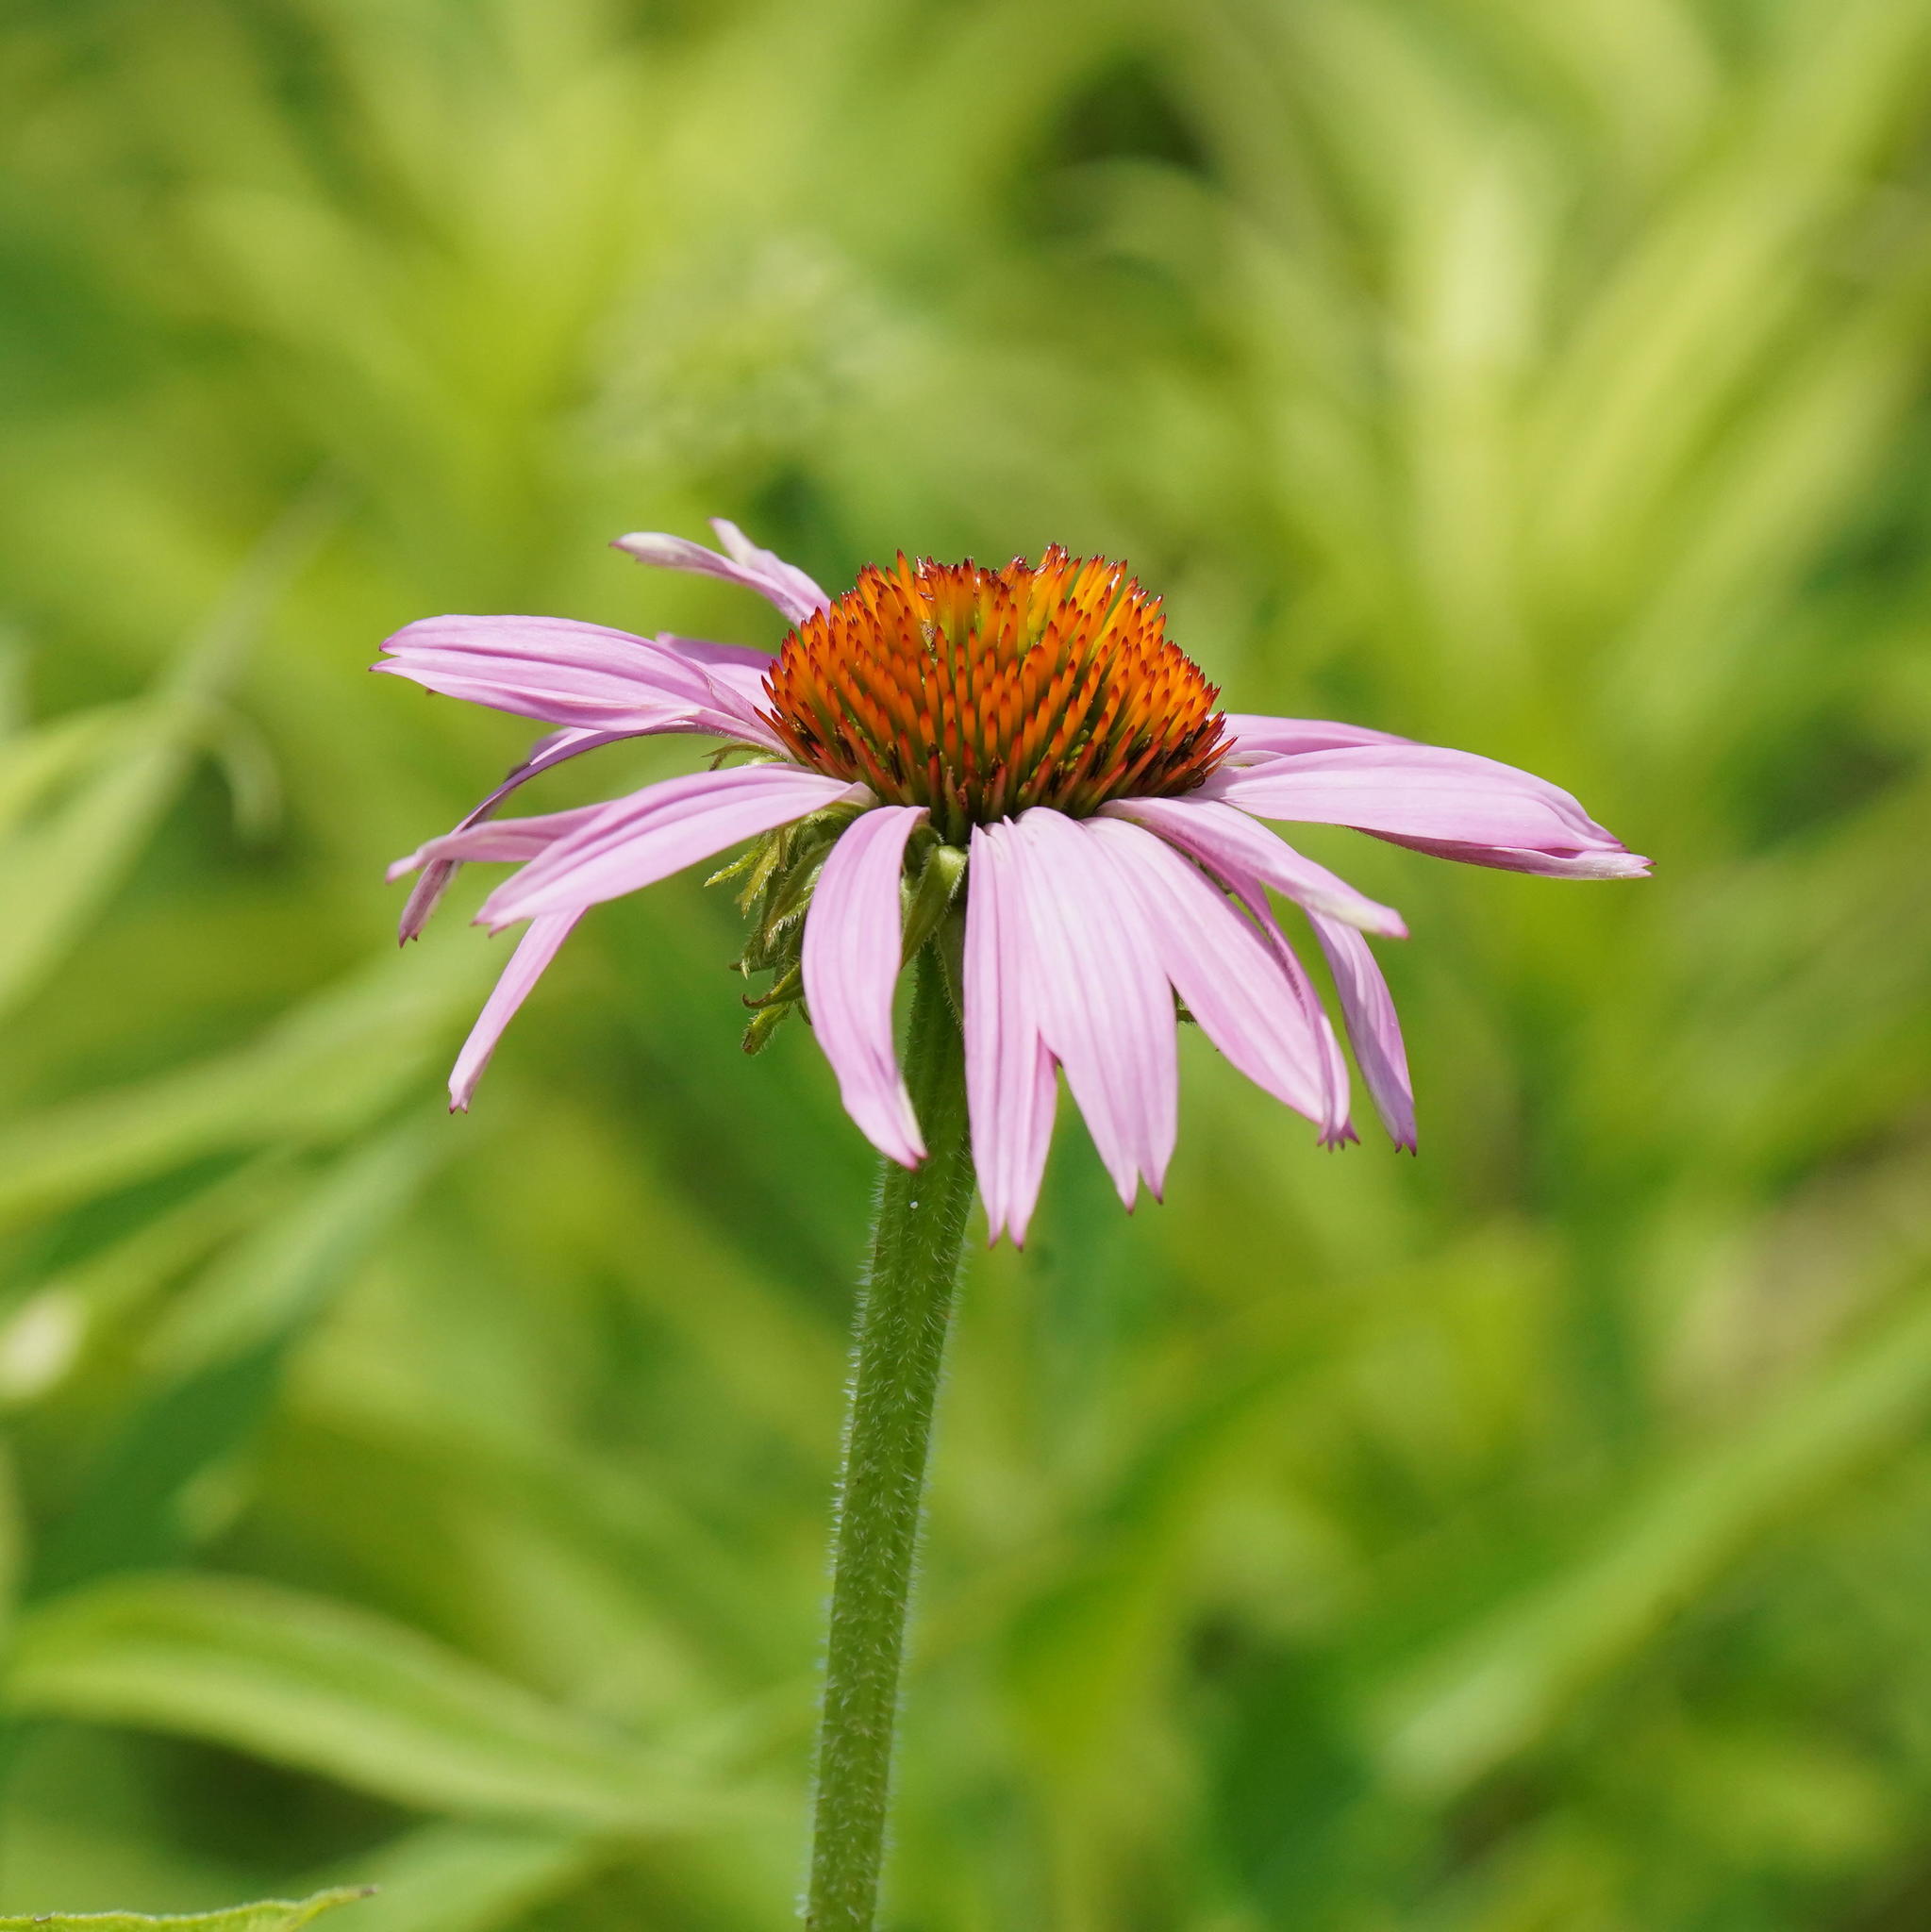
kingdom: Plantae
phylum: Tracheophyta
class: Magnoliopsida
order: Asterales
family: Asteraceae
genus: Echinacea
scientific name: Echinacea purpurea
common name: Broad-leaved purple coneflower
